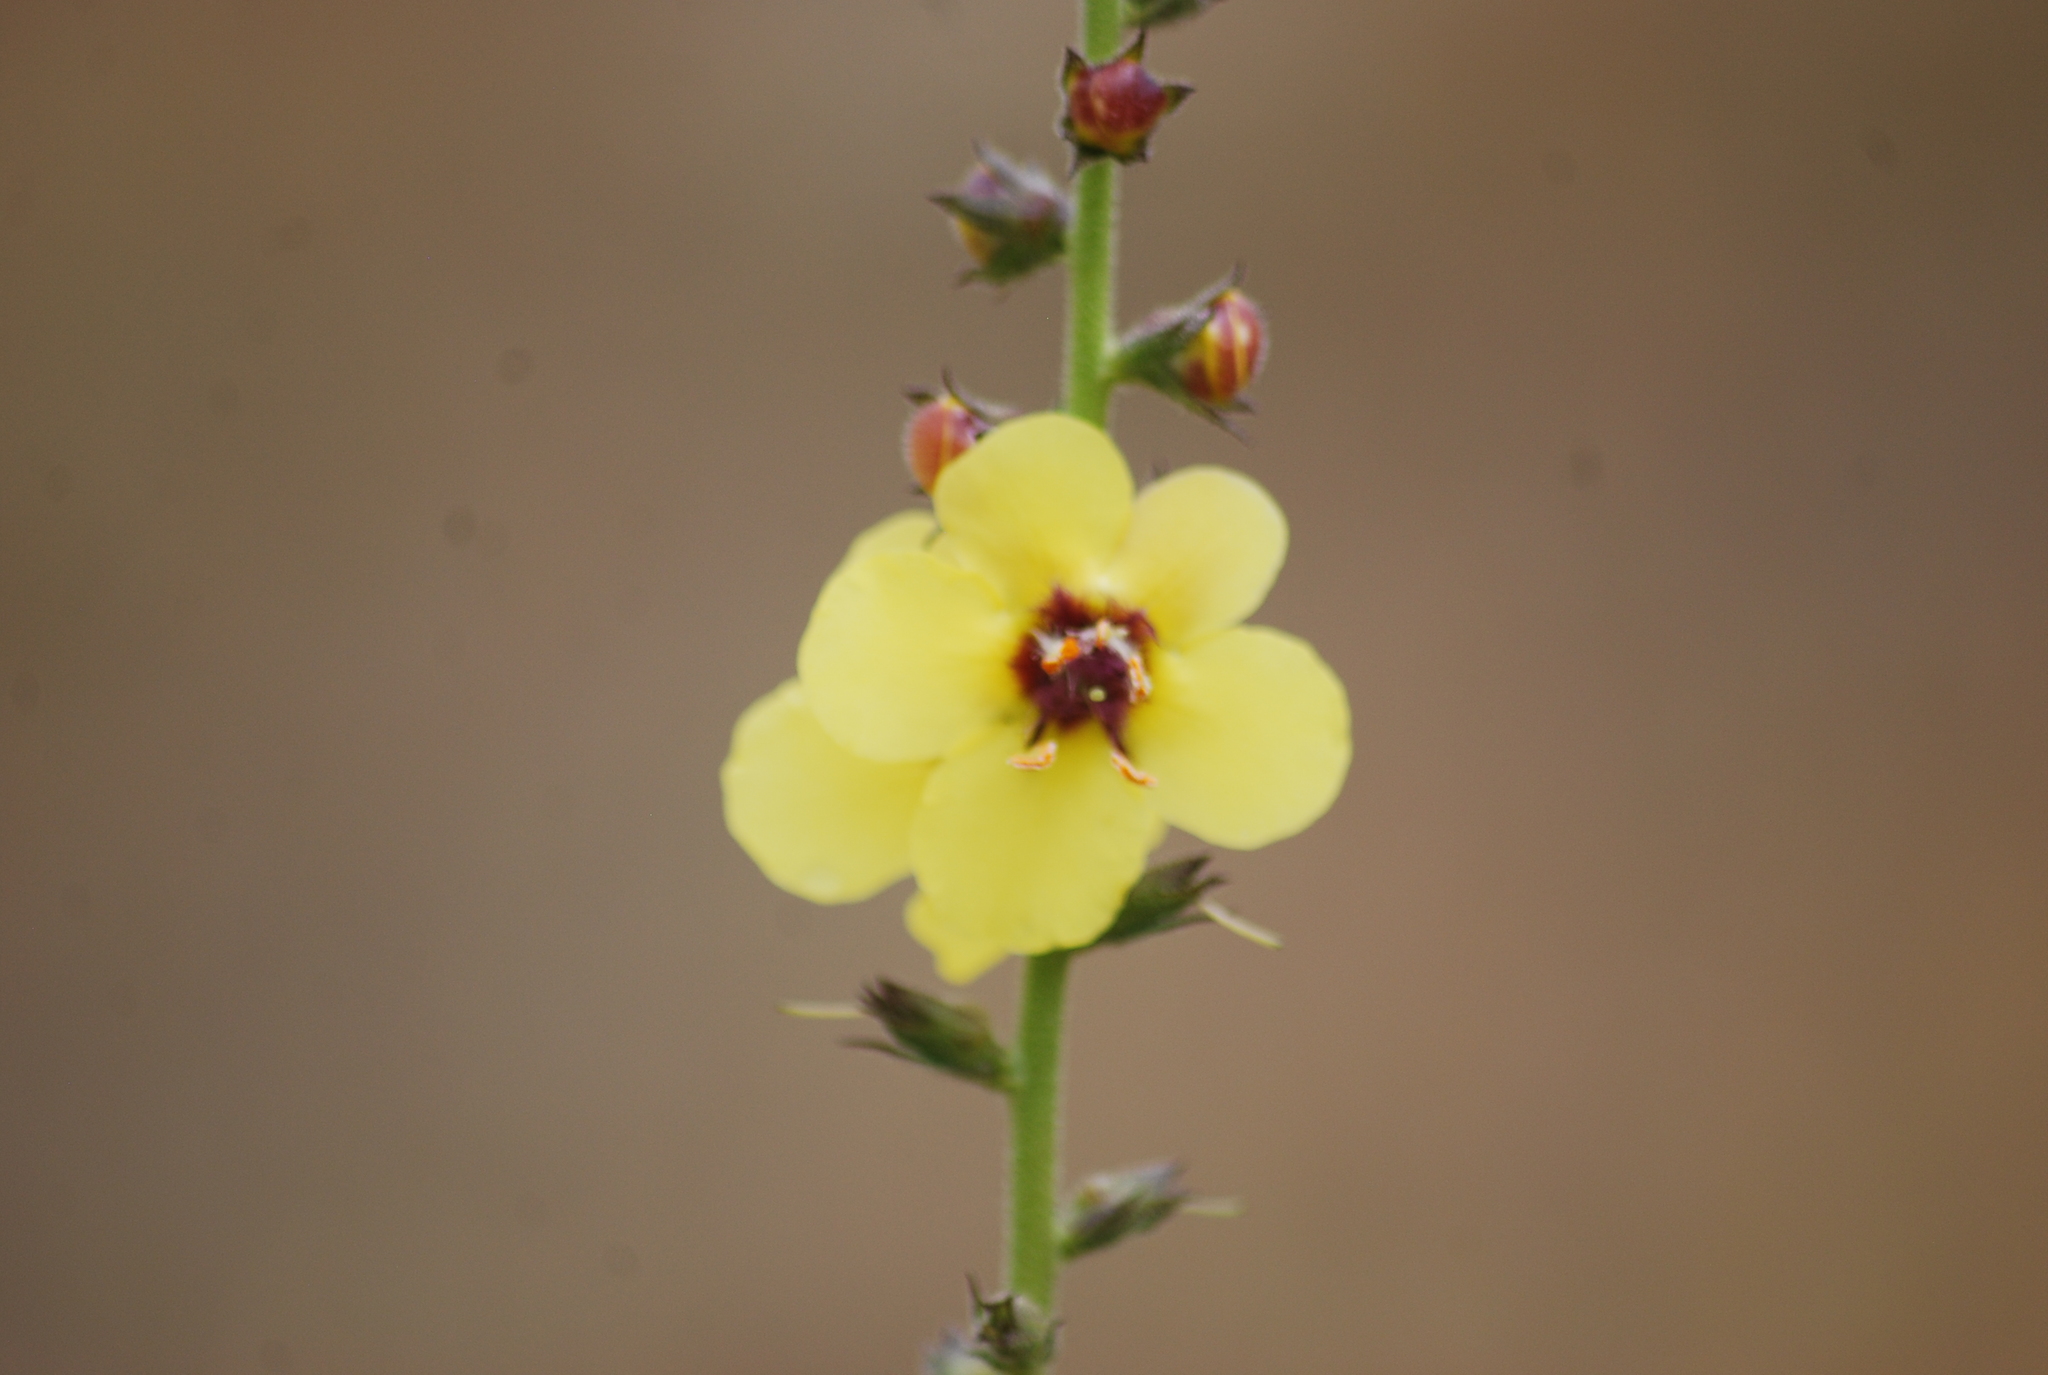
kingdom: Plantae
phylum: Tracheophyta
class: Magnoliopsida
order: Lamiales
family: Scrophulariaceae
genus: Verbascum
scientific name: Verbascum virgatum
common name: Twiggy mullein
